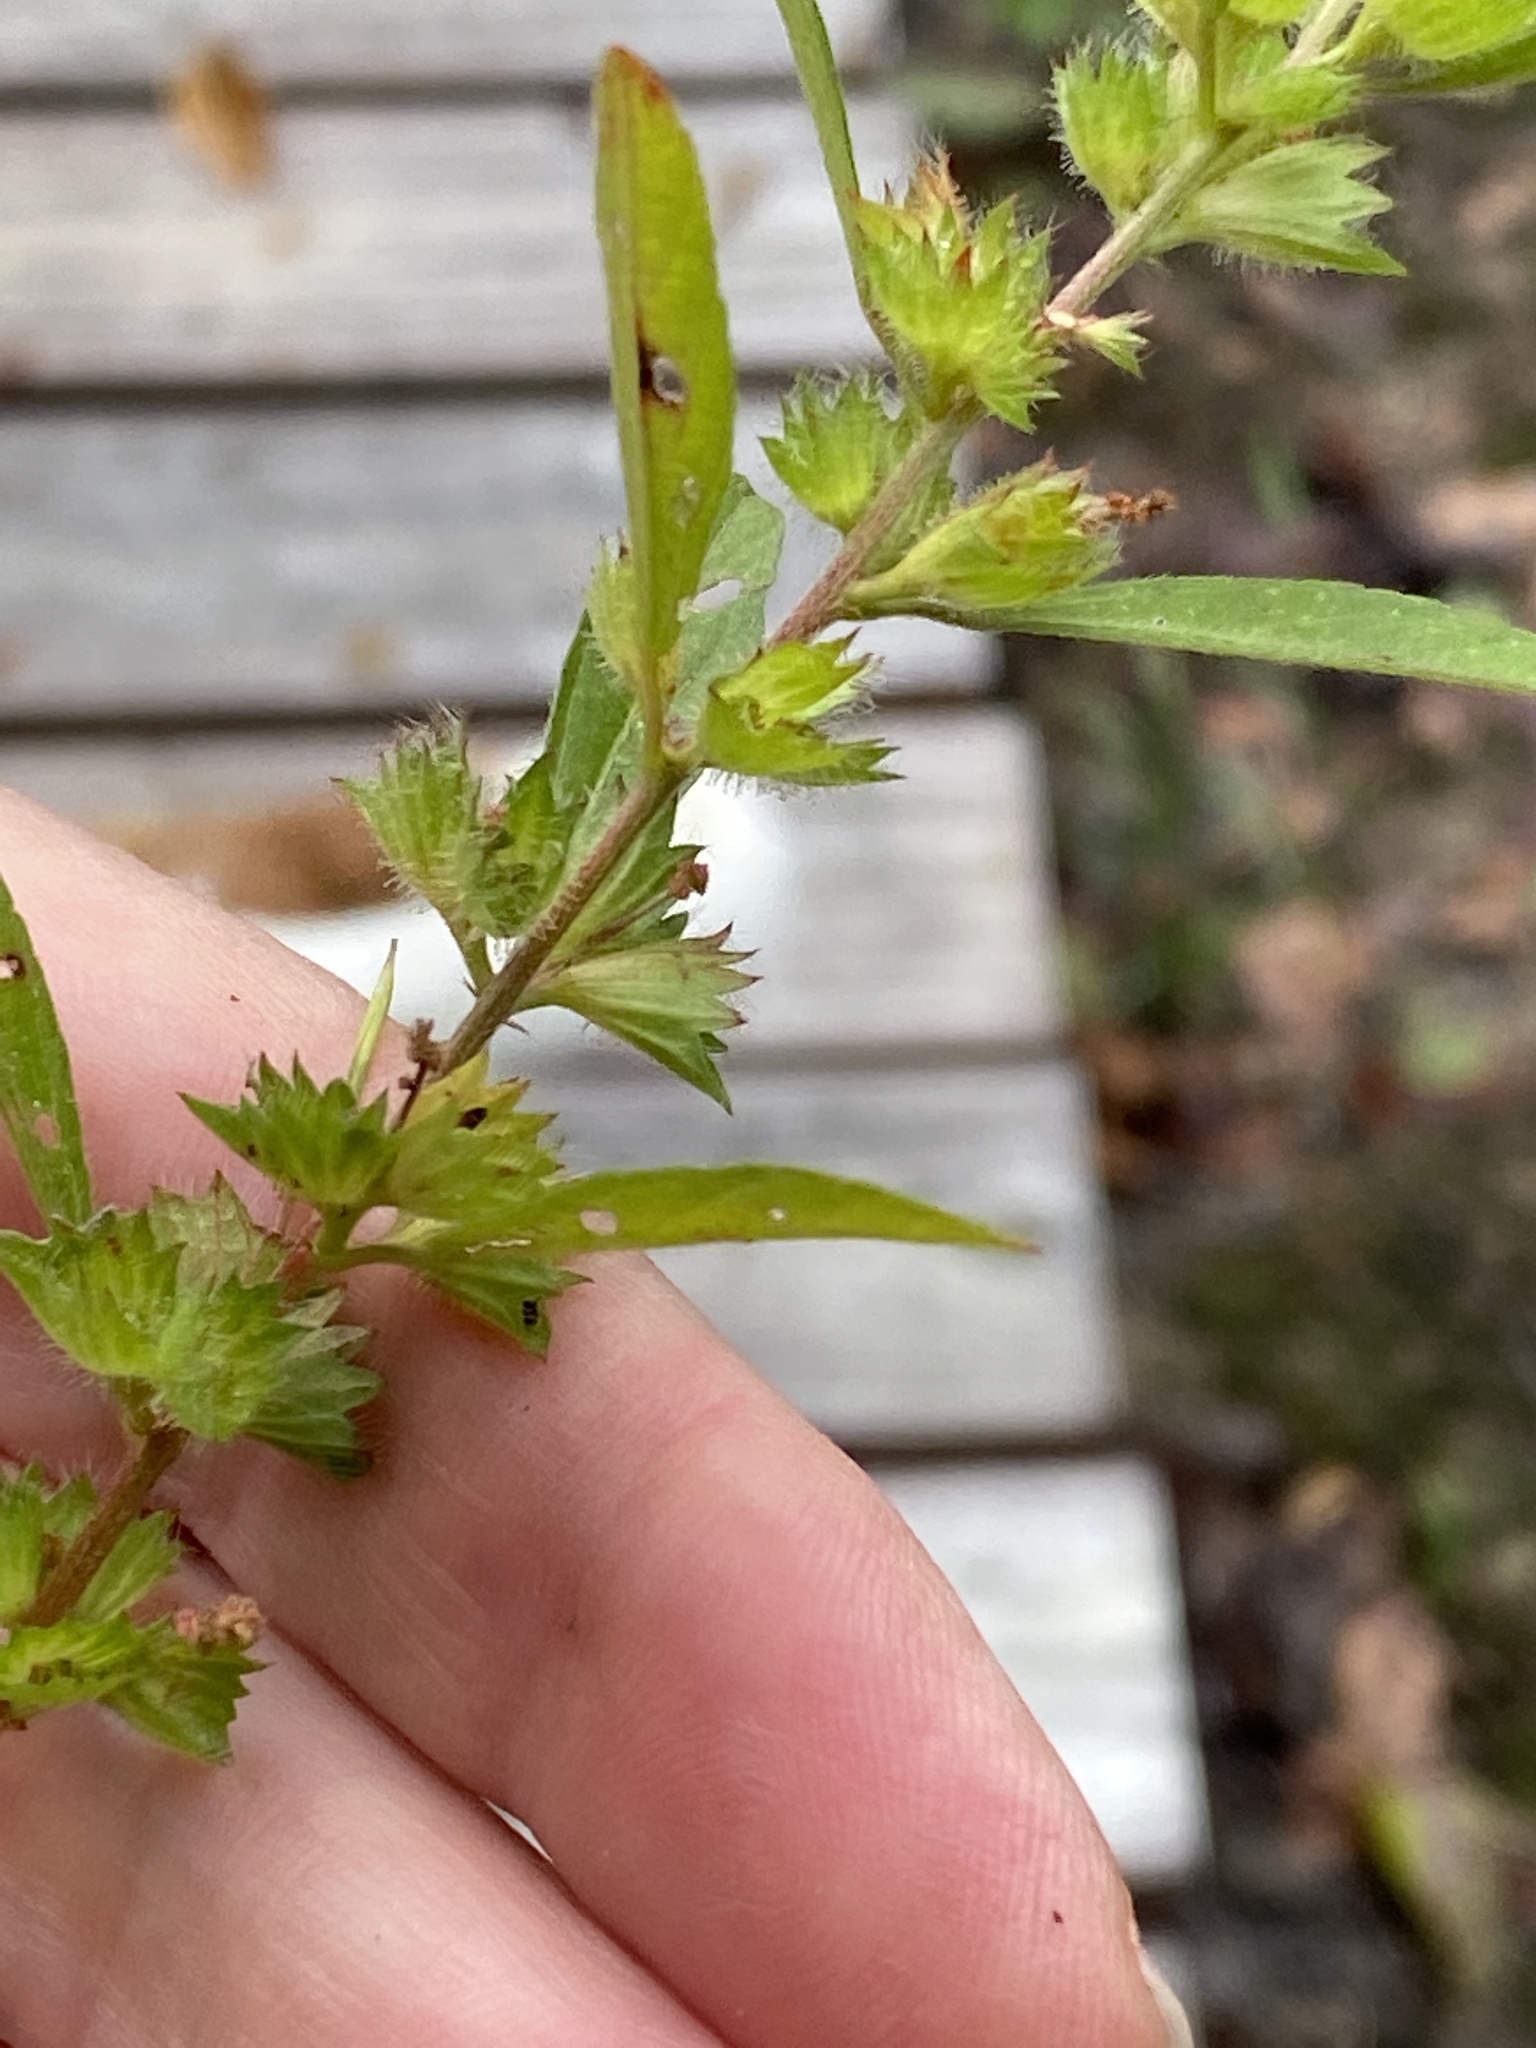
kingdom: Plantae
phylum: Tracheophyta
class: Magnoliopsida
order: Malpighiales
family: Euphorbiaceae
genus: Acalypha
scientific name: Acalypha gracilens
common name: Slender three-seeded mercury
